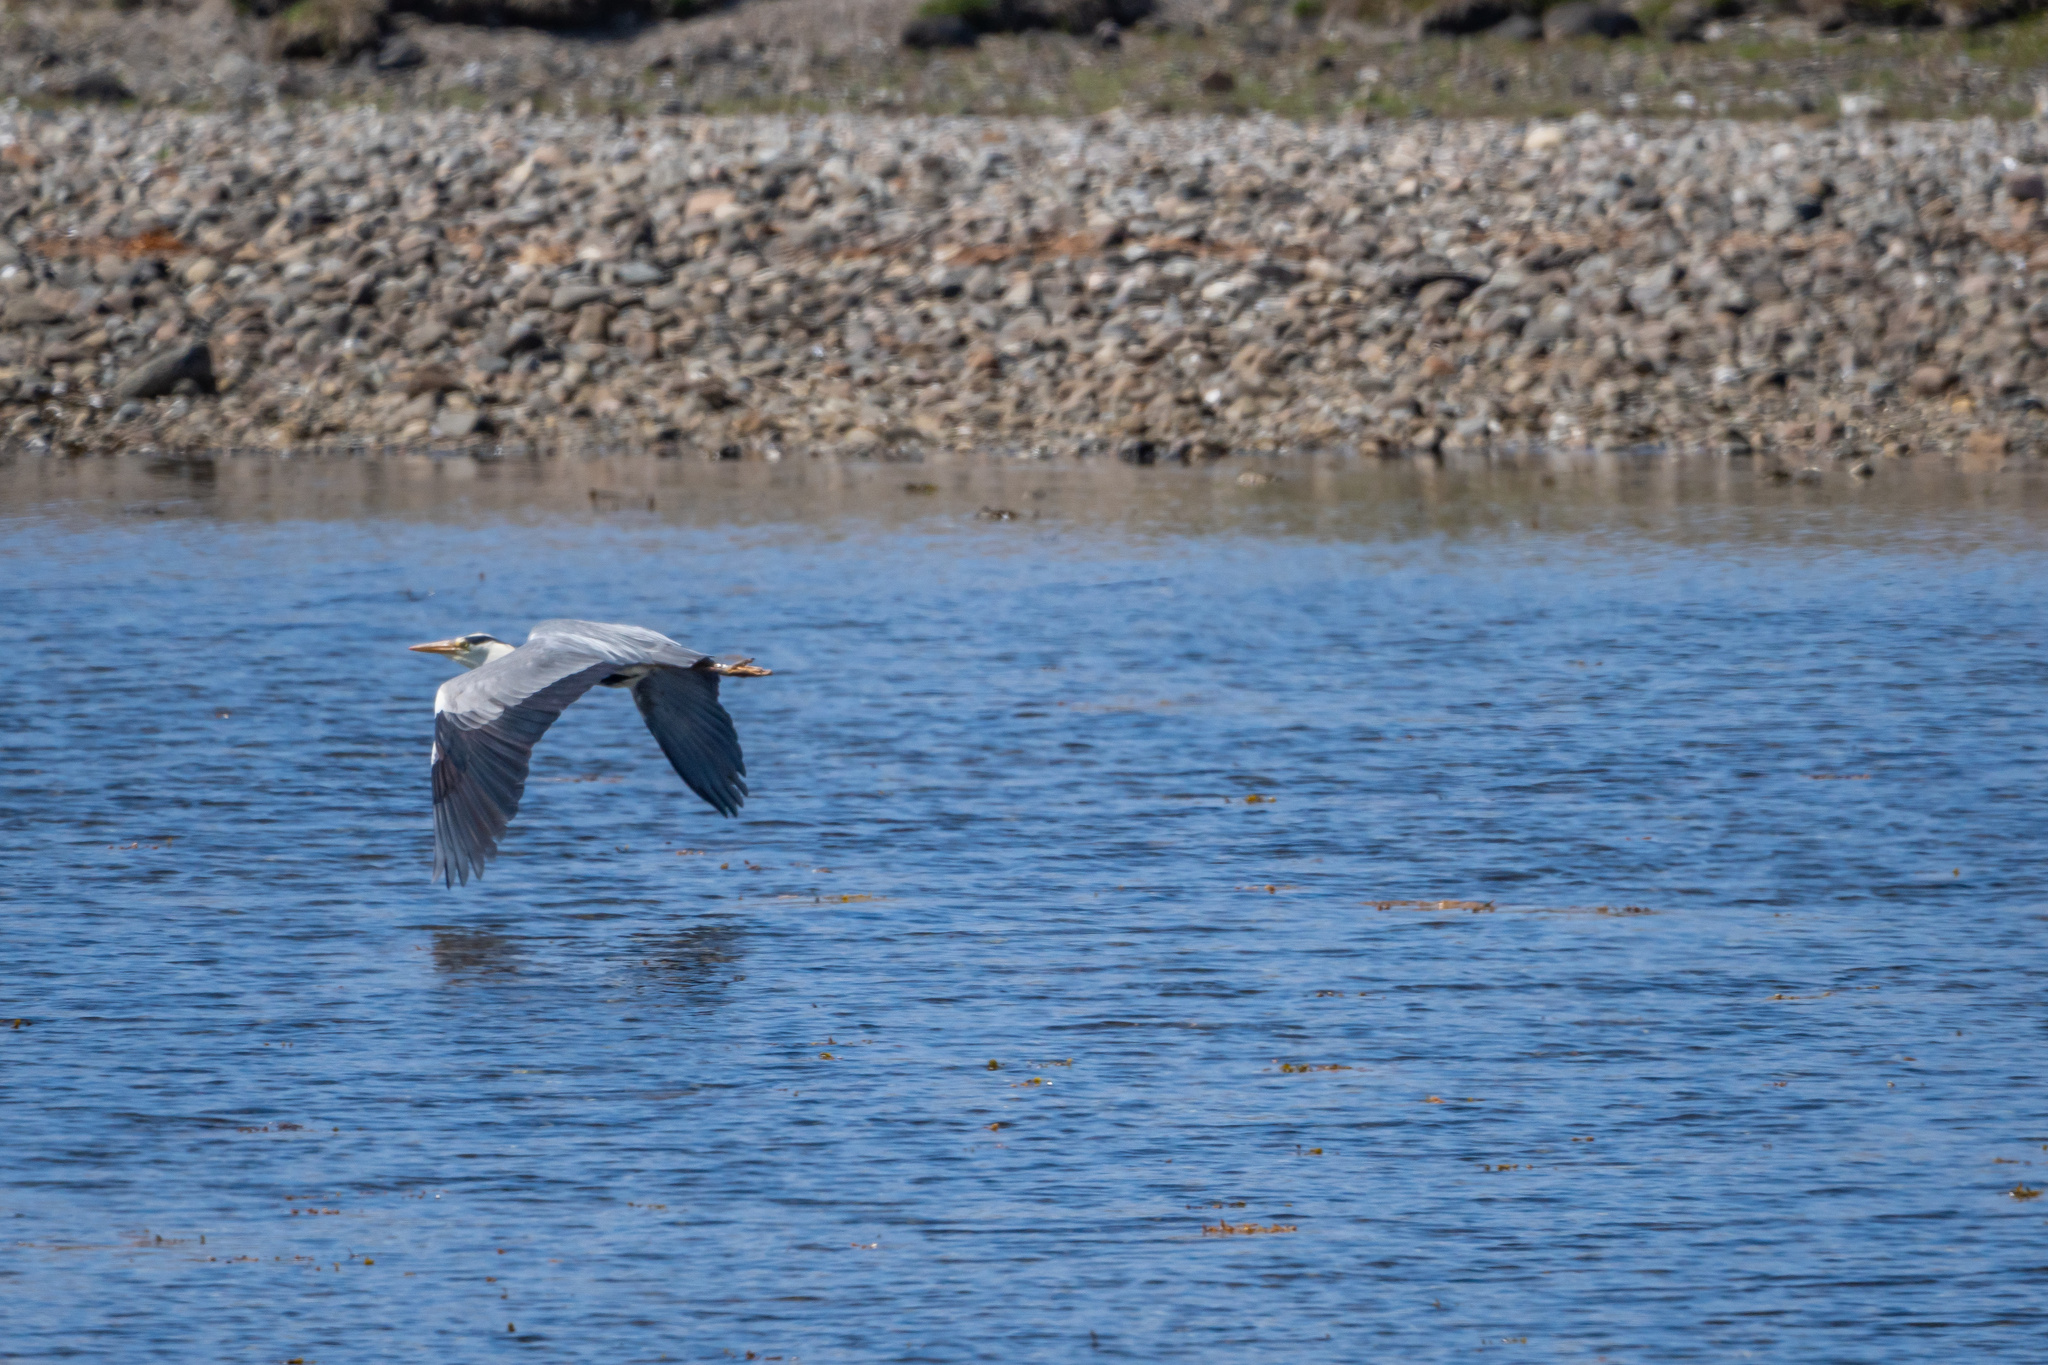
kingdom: Animalia
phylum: Chordata
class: Aves
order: Pelecaniformes
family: Ardeidae
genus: Ardea
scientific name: Ardea cinerea
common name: Grey heron
